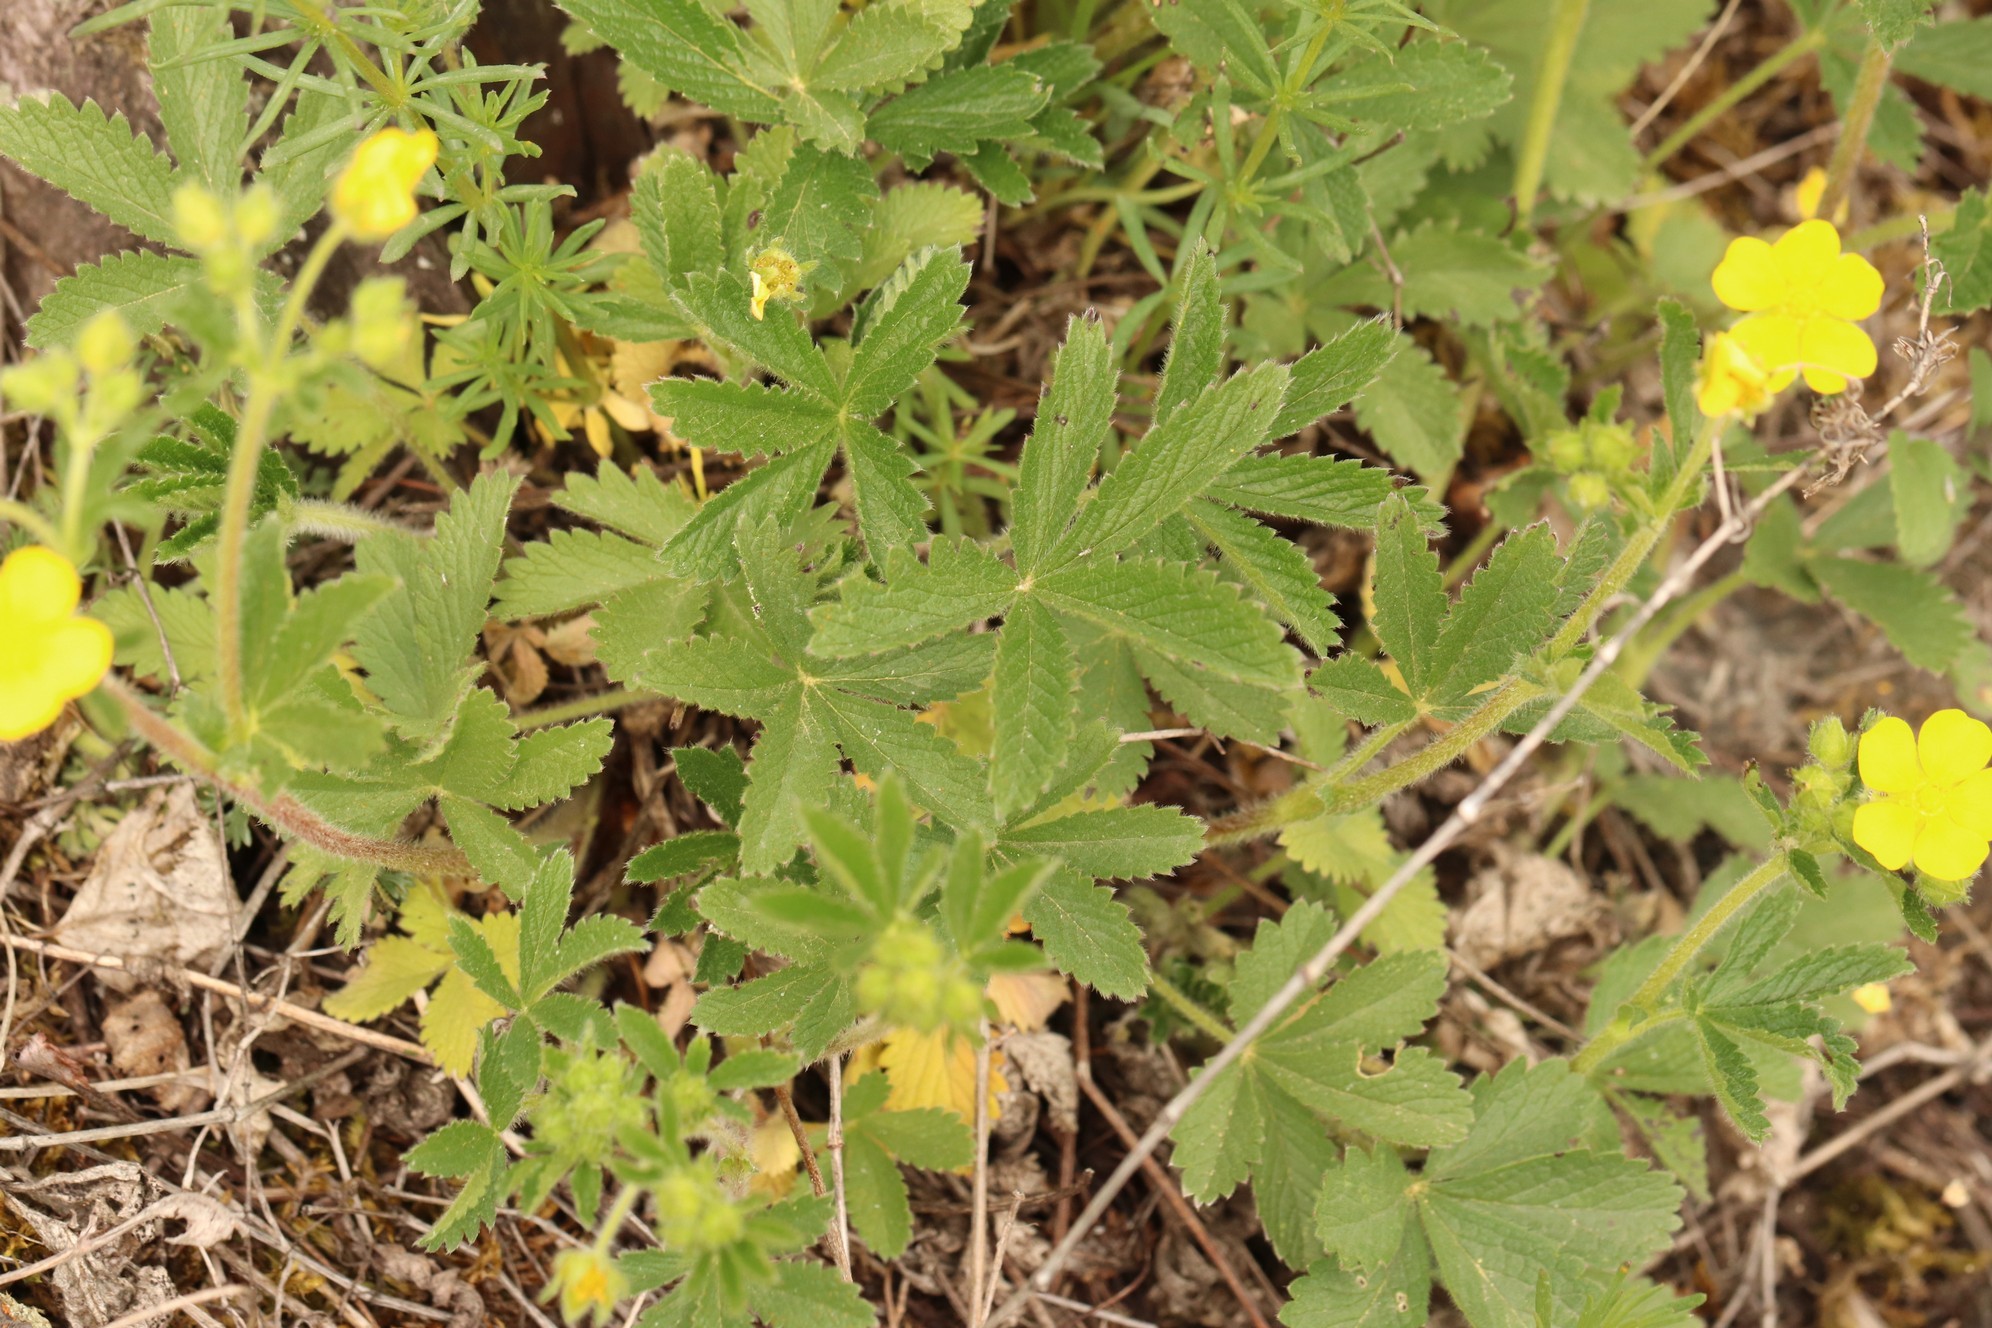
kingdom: Plantae
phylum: Tracheophyta
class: Magnoliopsida
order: Rosales
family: Rosaceae
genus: Potentilla
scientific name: Potentilla chrysantha
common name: Thuringian cinquefoil
